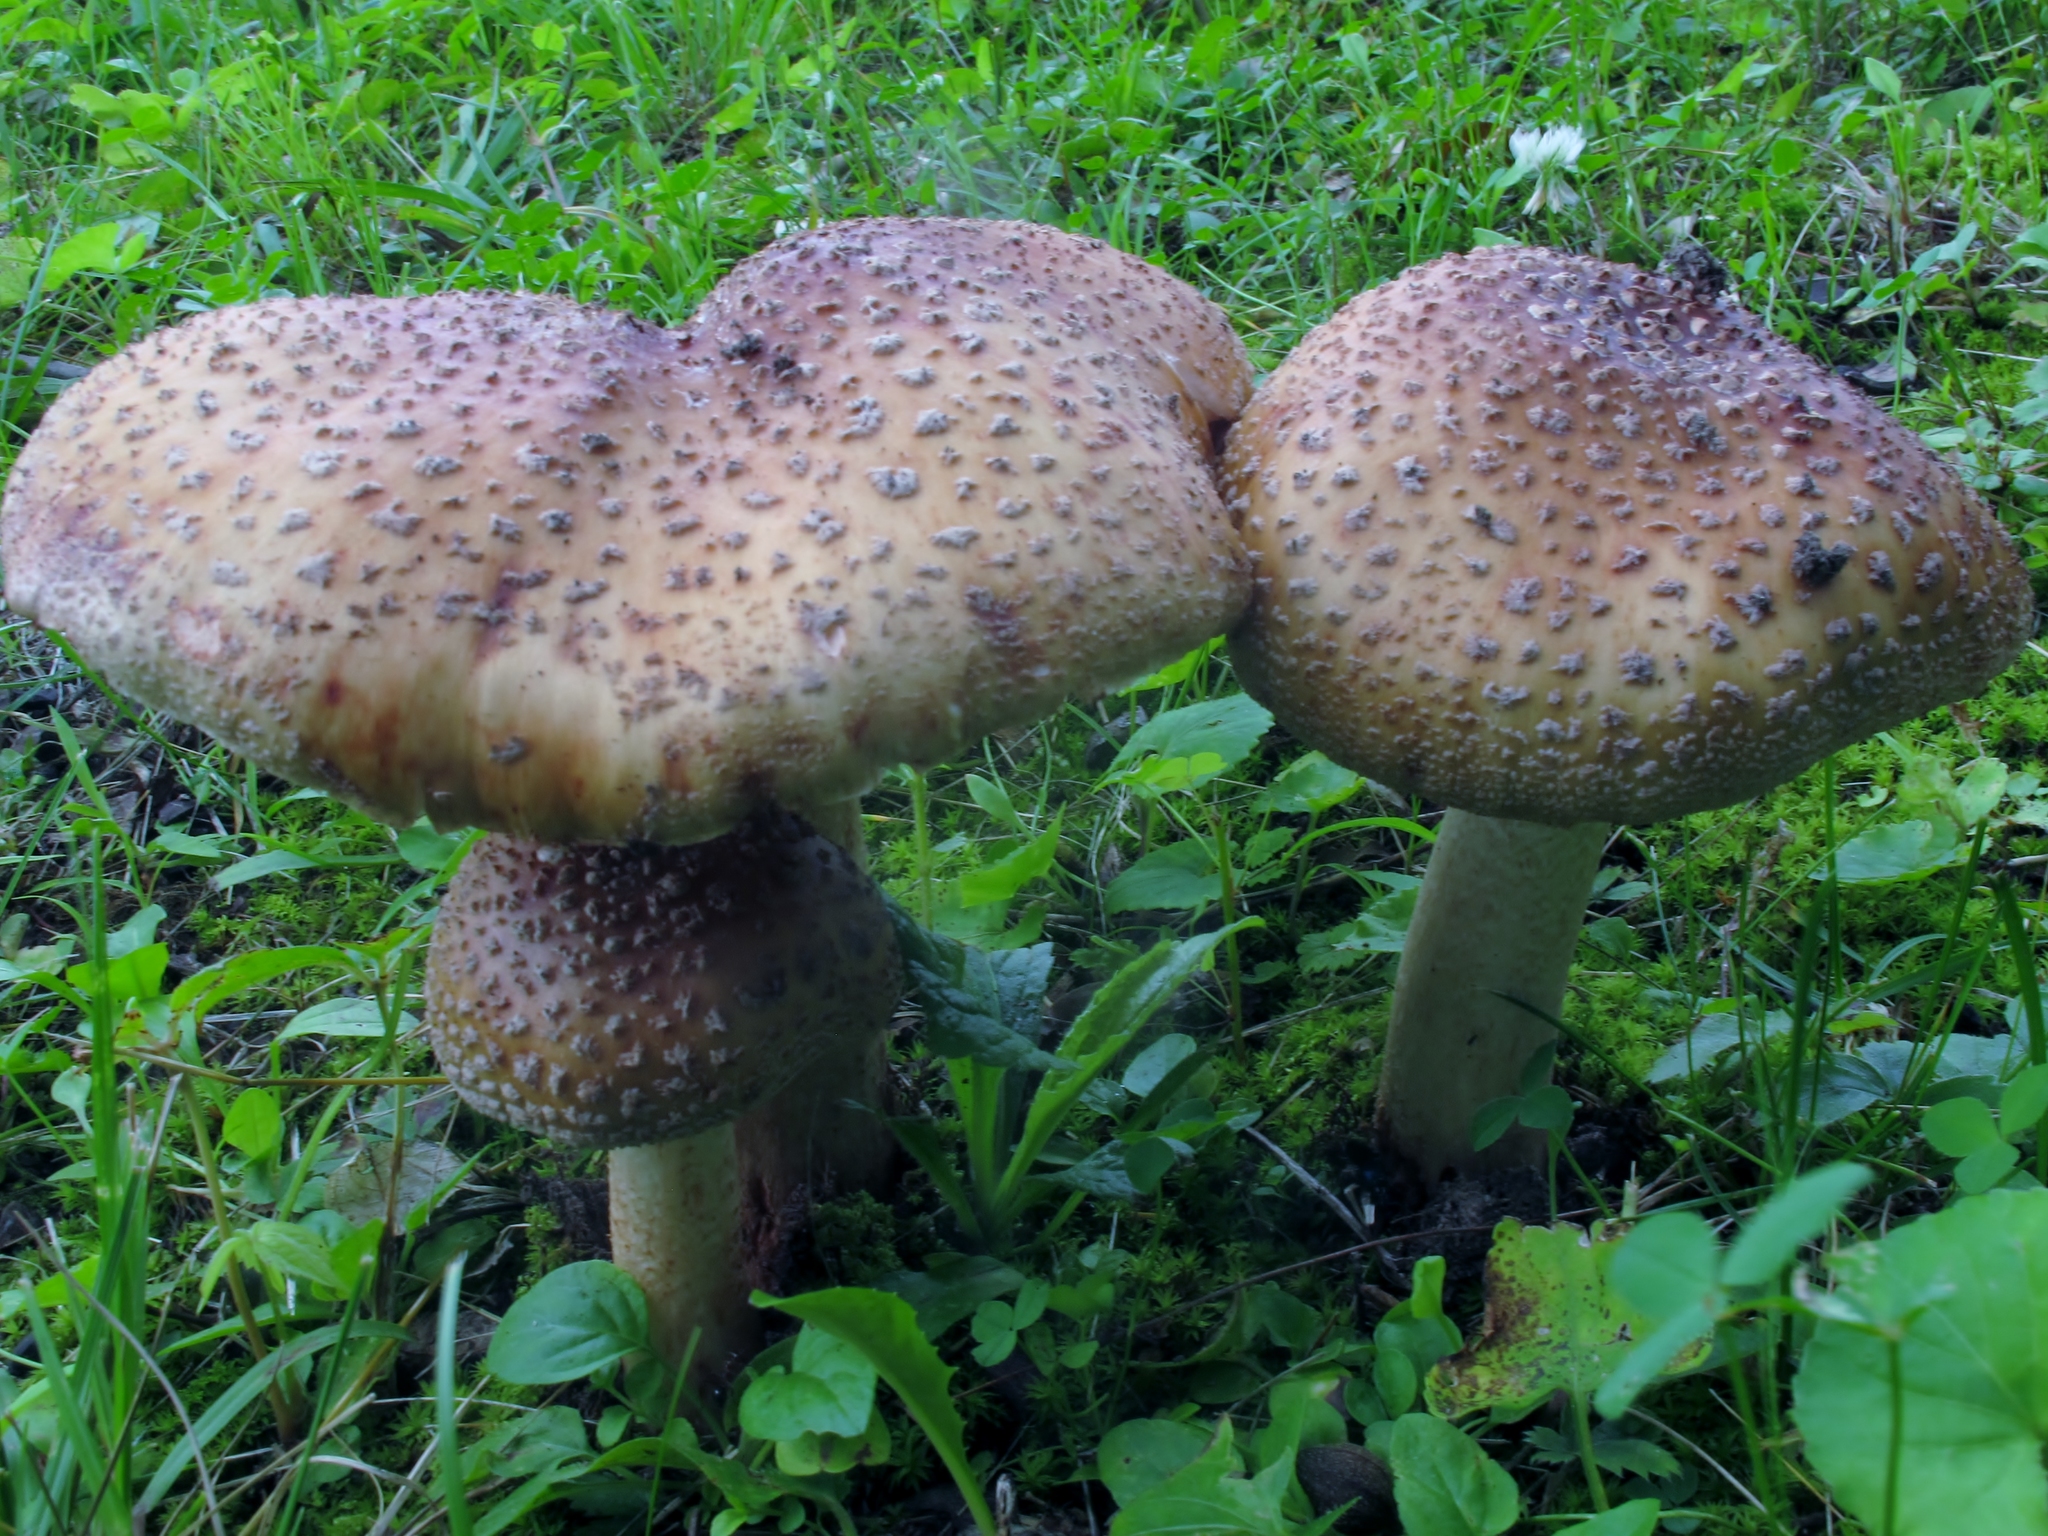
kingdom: Fungi
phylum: Basidiomycota
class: Agaricomycetes
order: Agaricales
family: Amanitaceae
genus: Amanita
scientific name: Amanita rubescens
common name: Blusher
